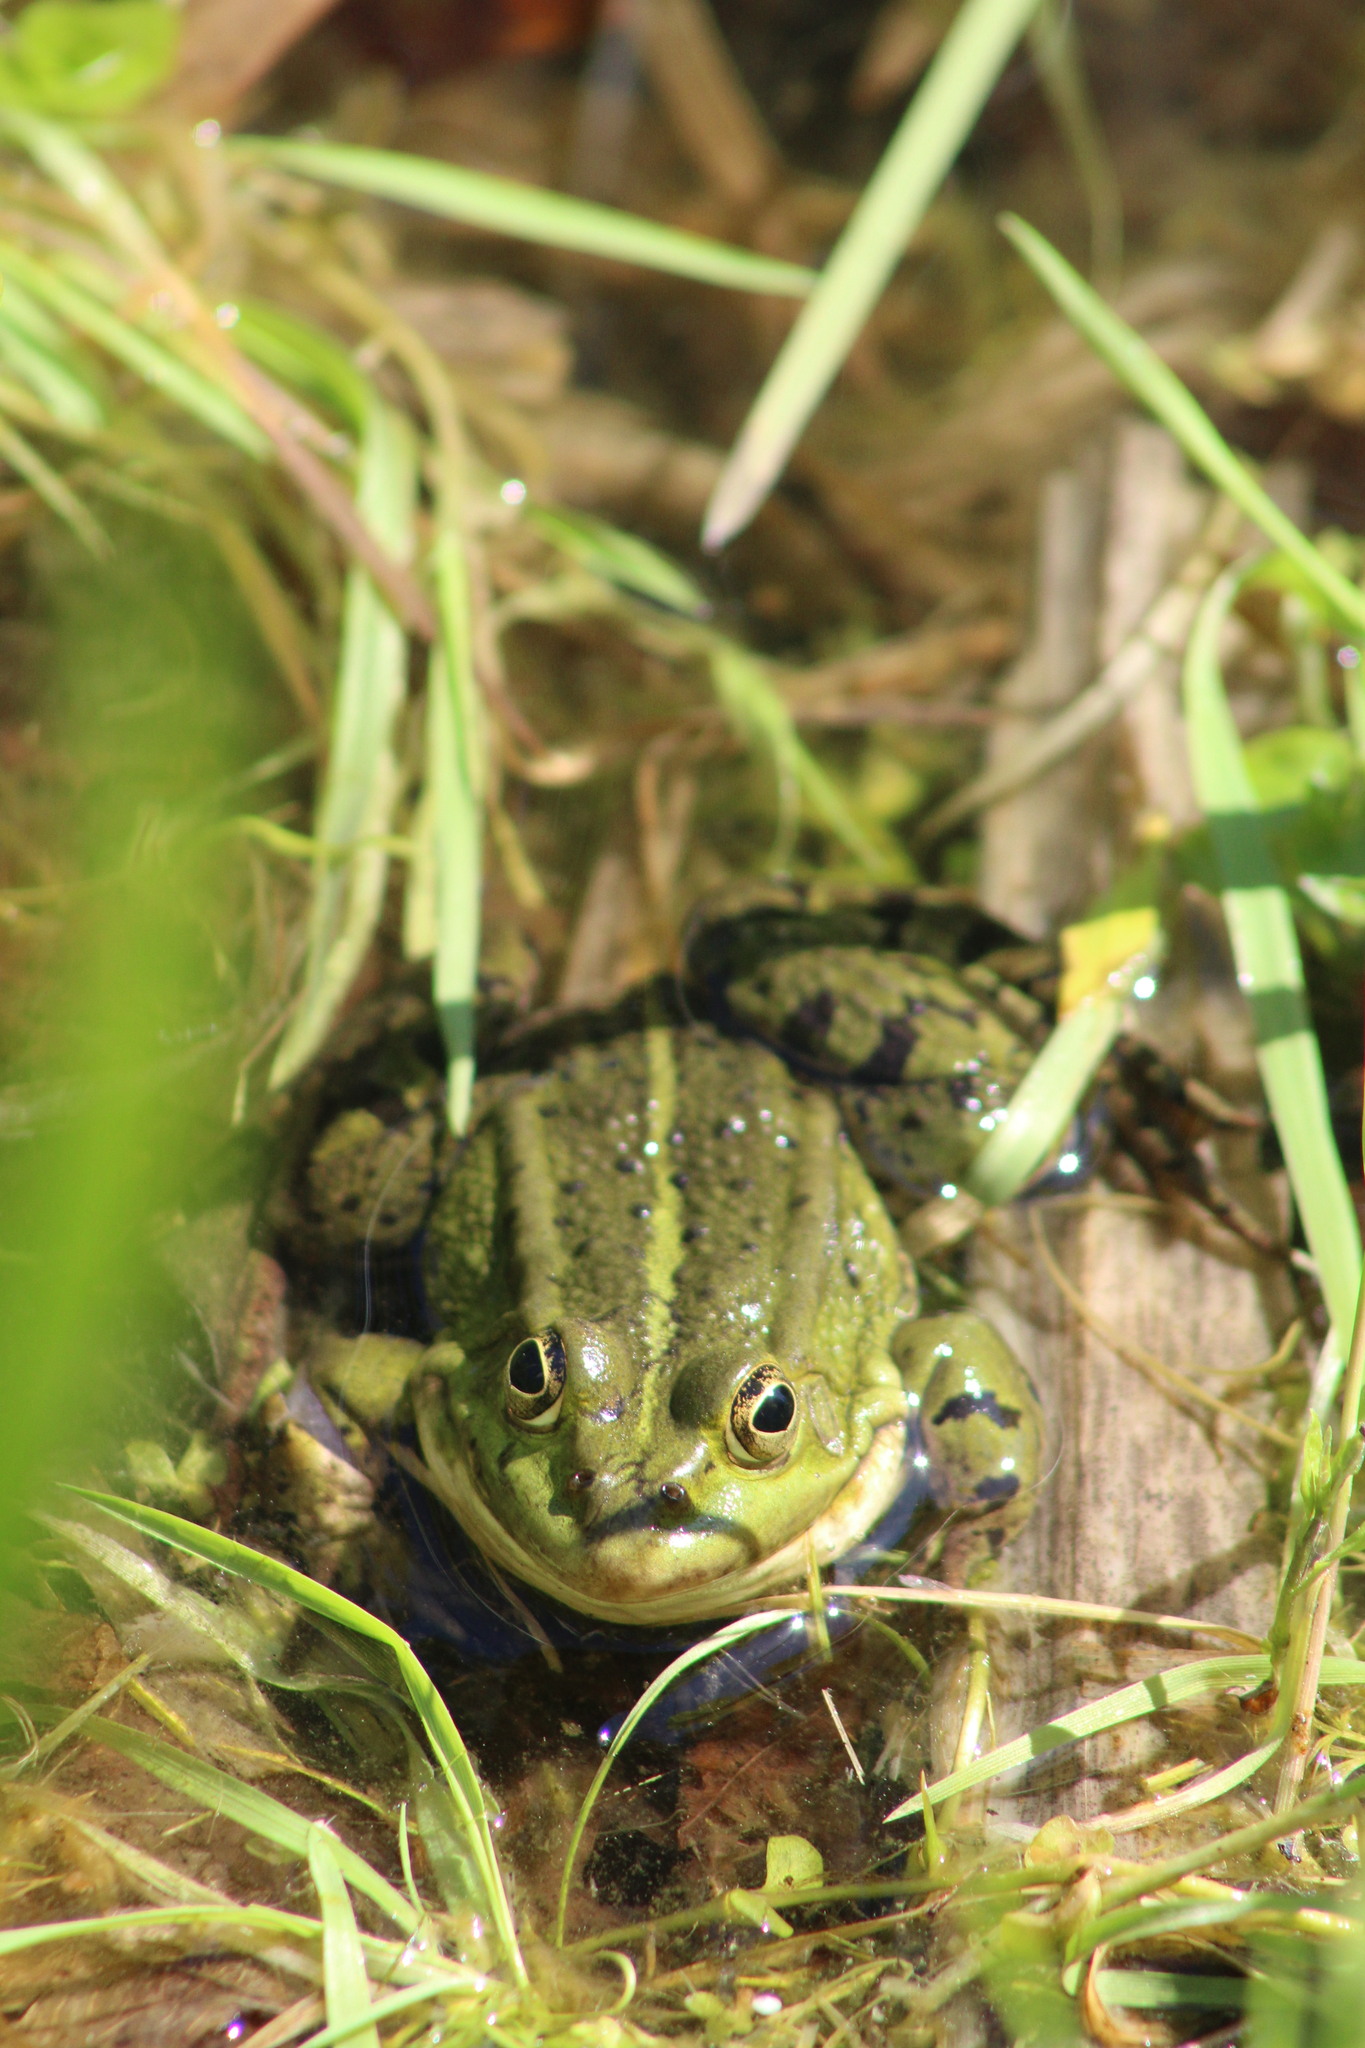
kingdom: Animalia
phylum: Chordata
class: Amphibia
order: Anura
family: Ranidae
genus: Pelophylax
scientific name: Pelophylax
